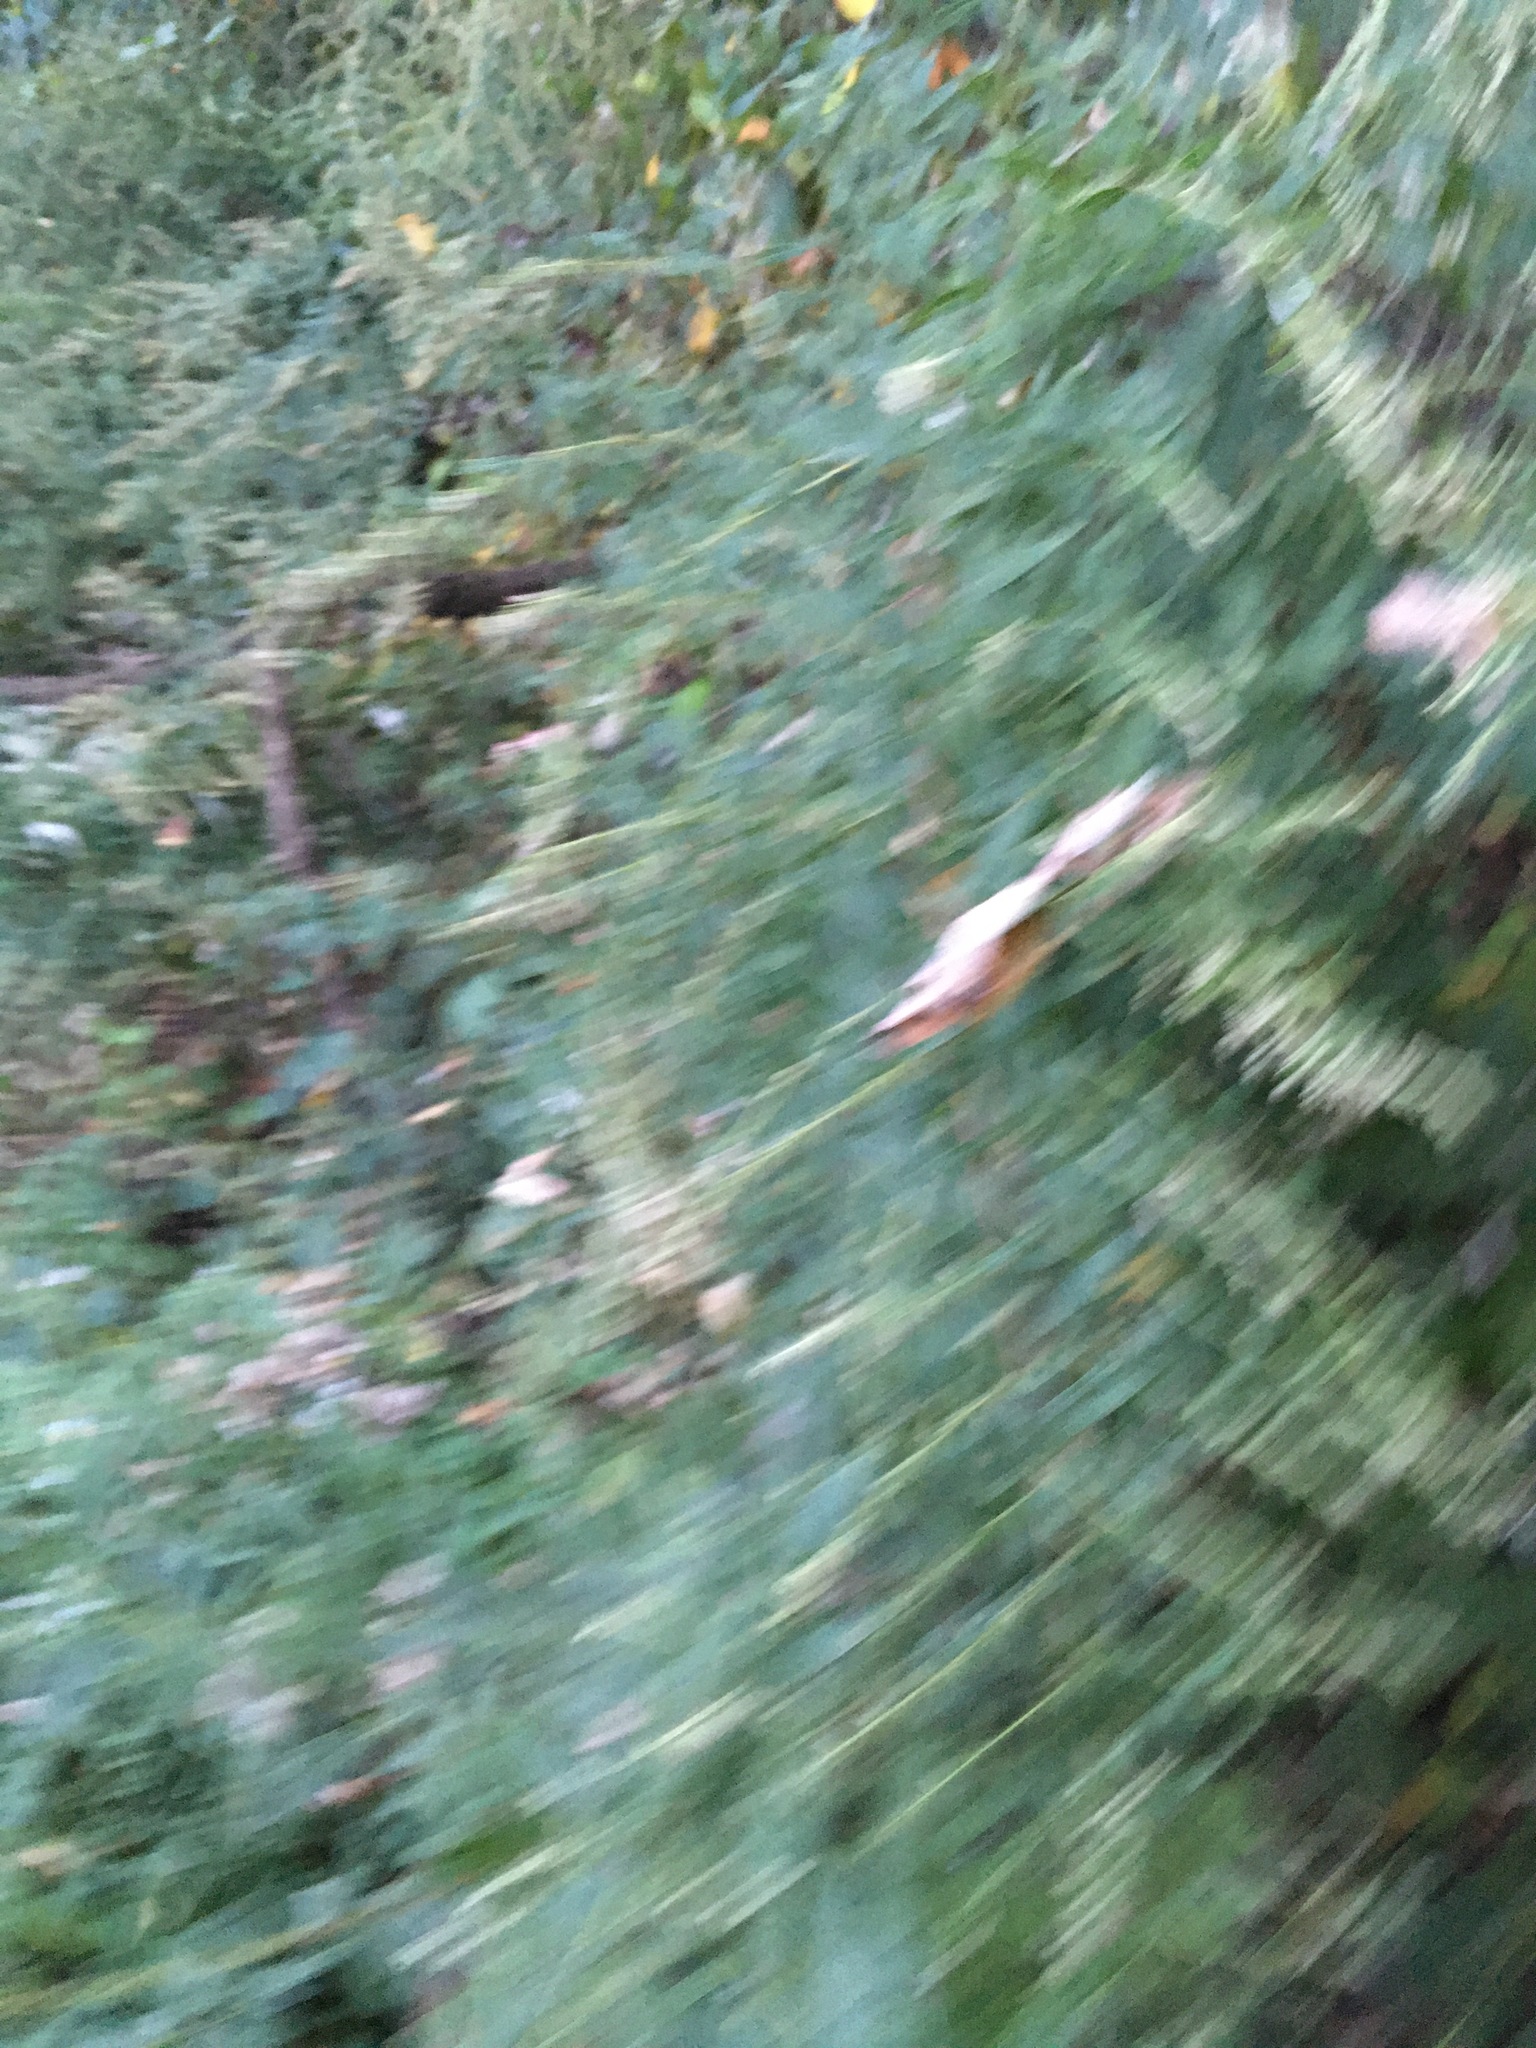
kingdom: Plantae
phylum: Tracheophyta
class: Magnoliopsida
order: Asterales
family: Asteraceae
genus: Artemisia
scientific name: Artemisia vulgaris
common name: Mugwort
